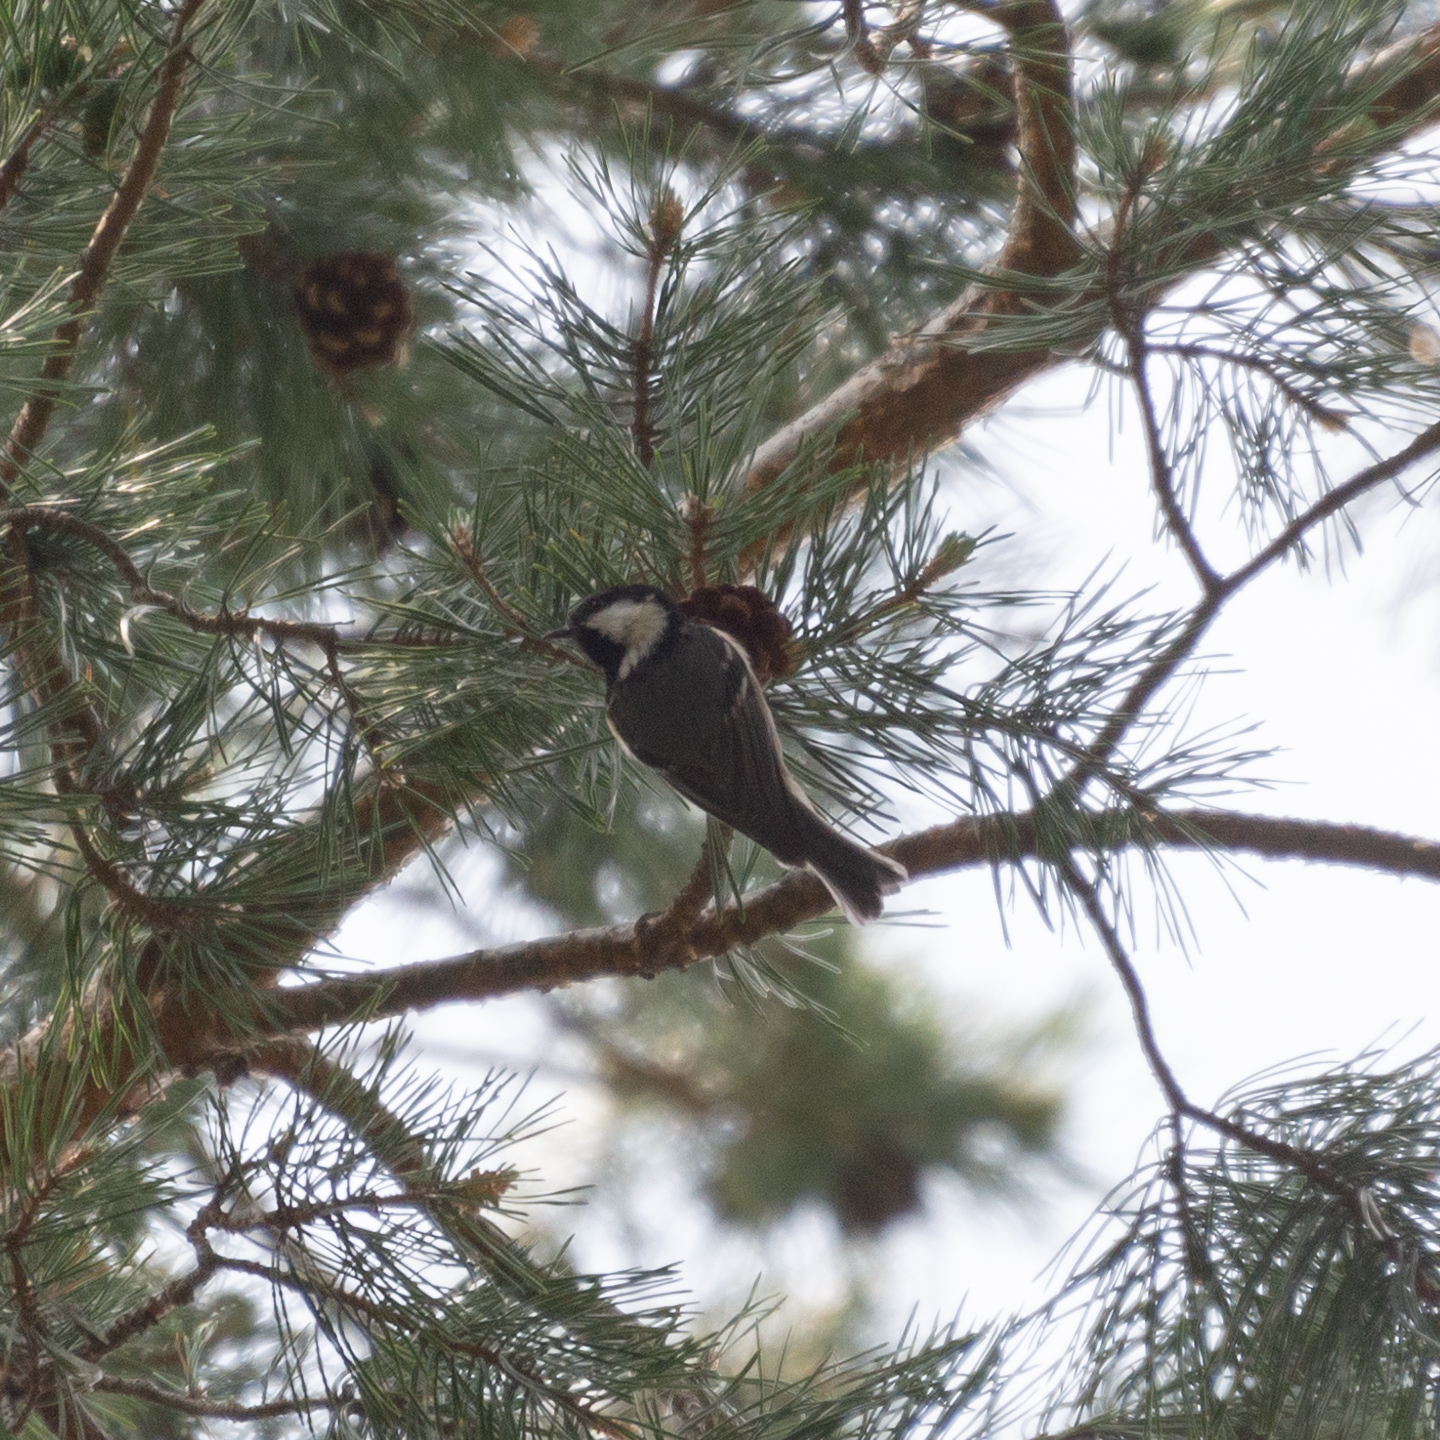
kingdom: Animalia
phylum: Chordata
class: Aves
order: Passeriformes
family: Paridae
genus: Periparus
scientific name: Periparus ater
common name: Coal tit
